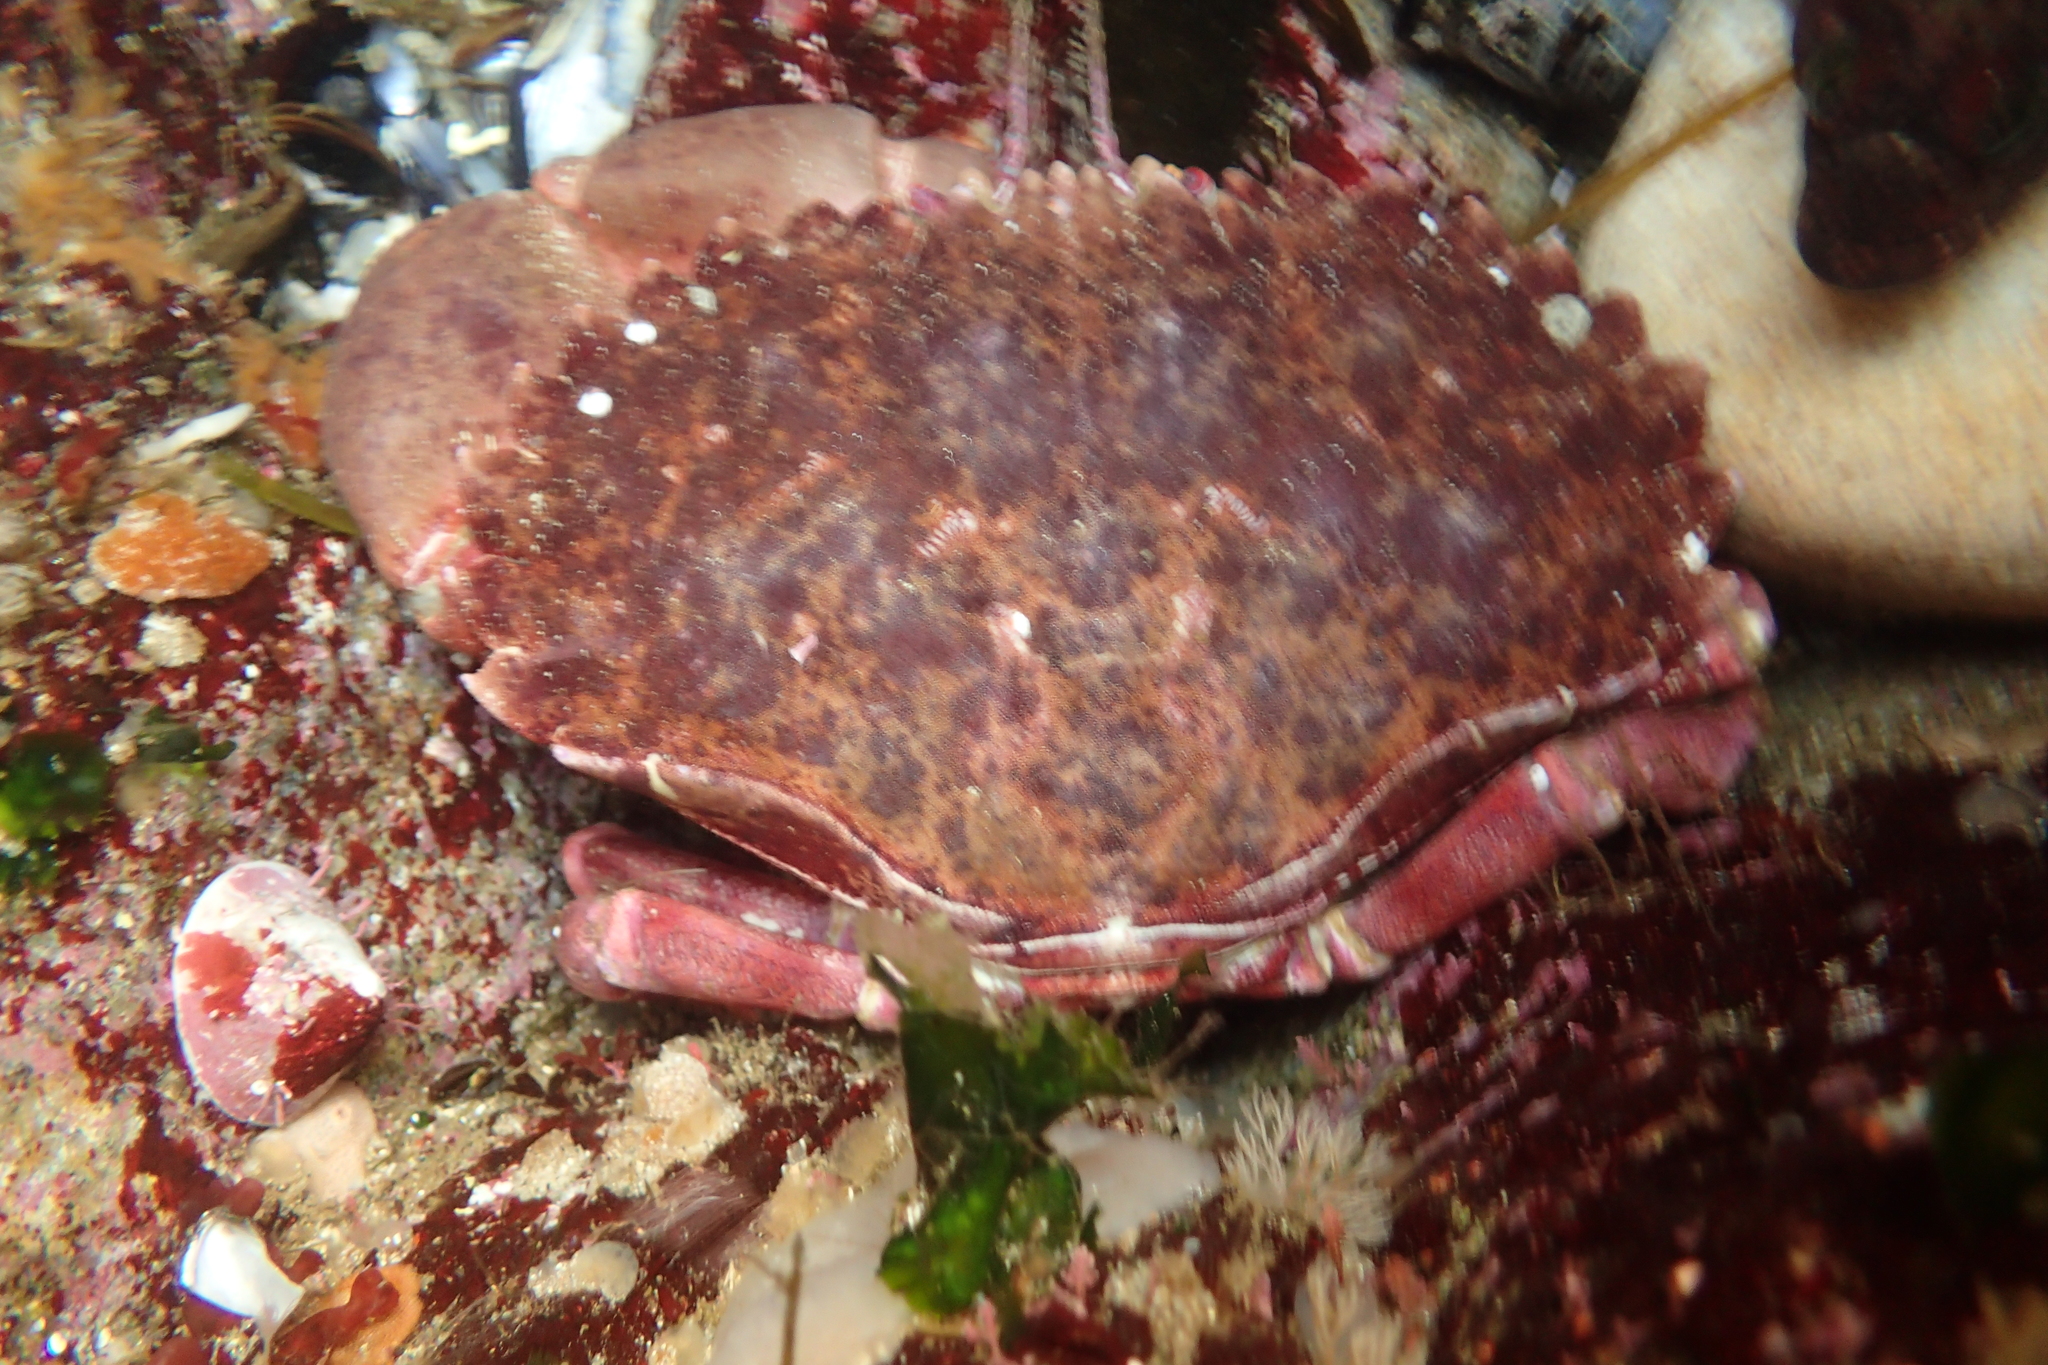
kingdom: Animalia
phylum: Arthropoda
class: Malacostraca
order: Decapoda
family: Cancridae
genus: Romaleon
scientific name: Romaleon antennarium
